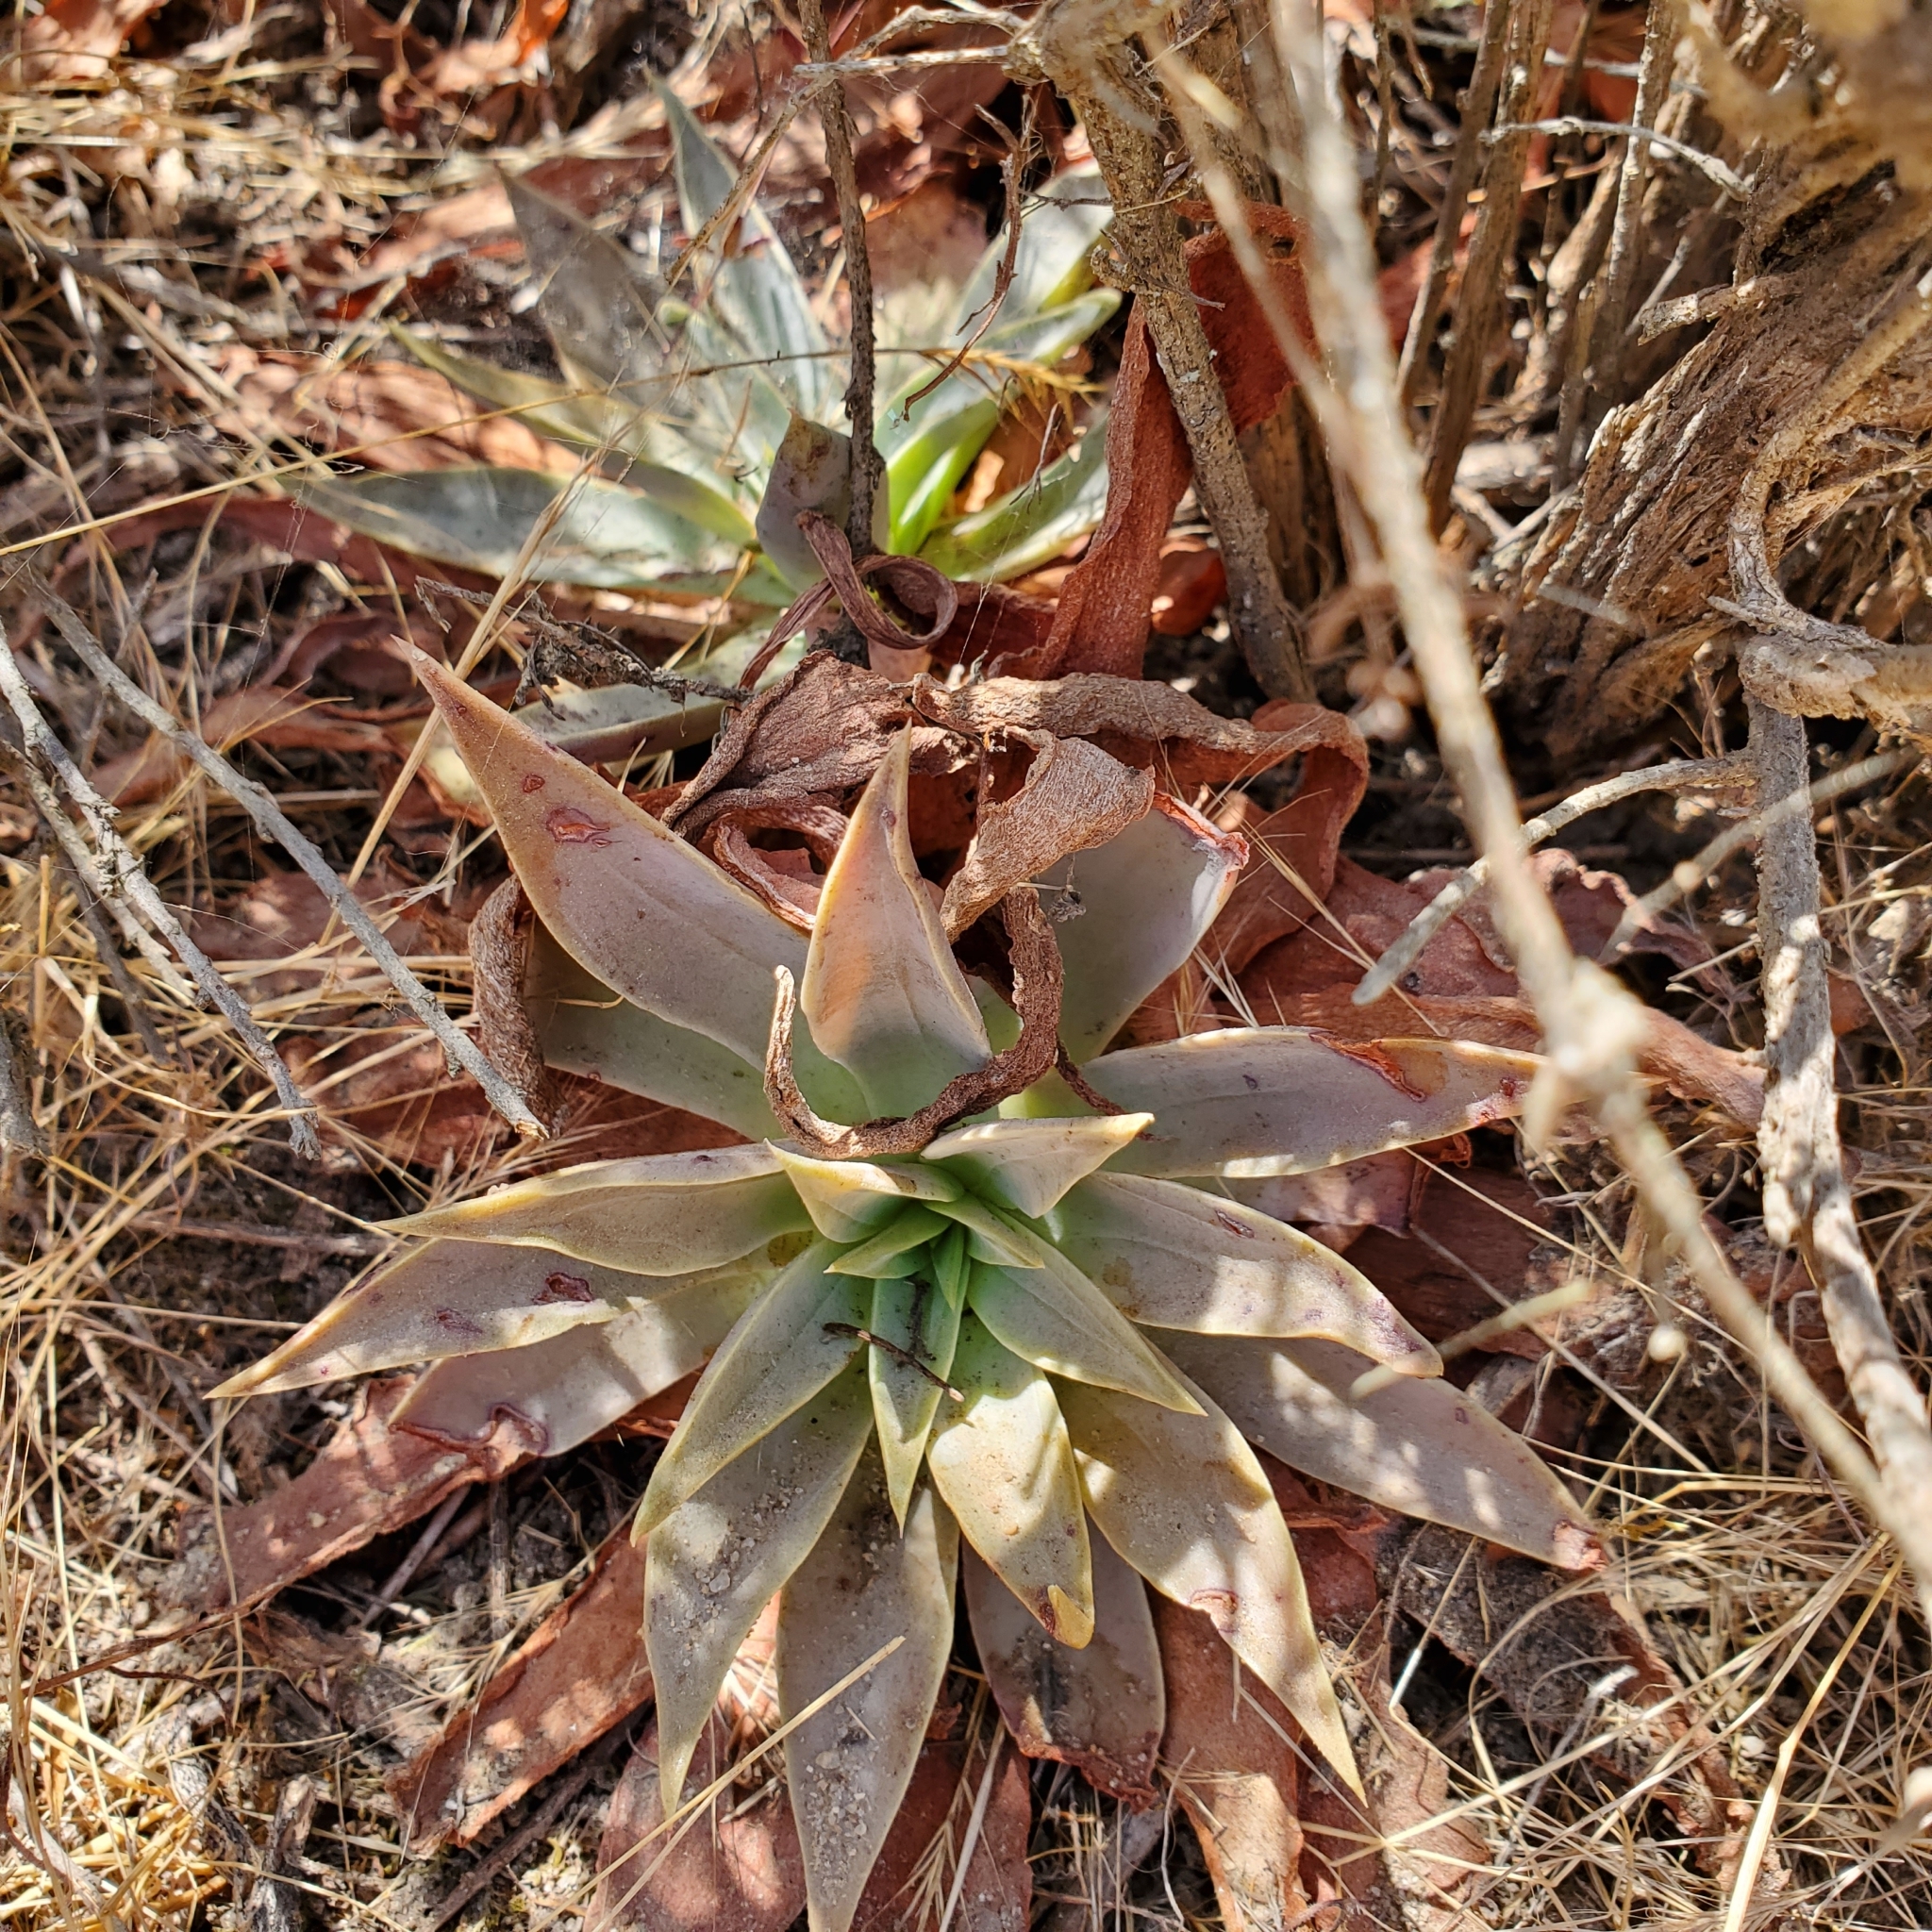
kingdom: Plantae
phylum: Tracheophyta
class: Magnoliopsida
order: Saxifragales
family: Crassulaceae
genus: Dudleya
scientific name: Dudleya lanceolata
